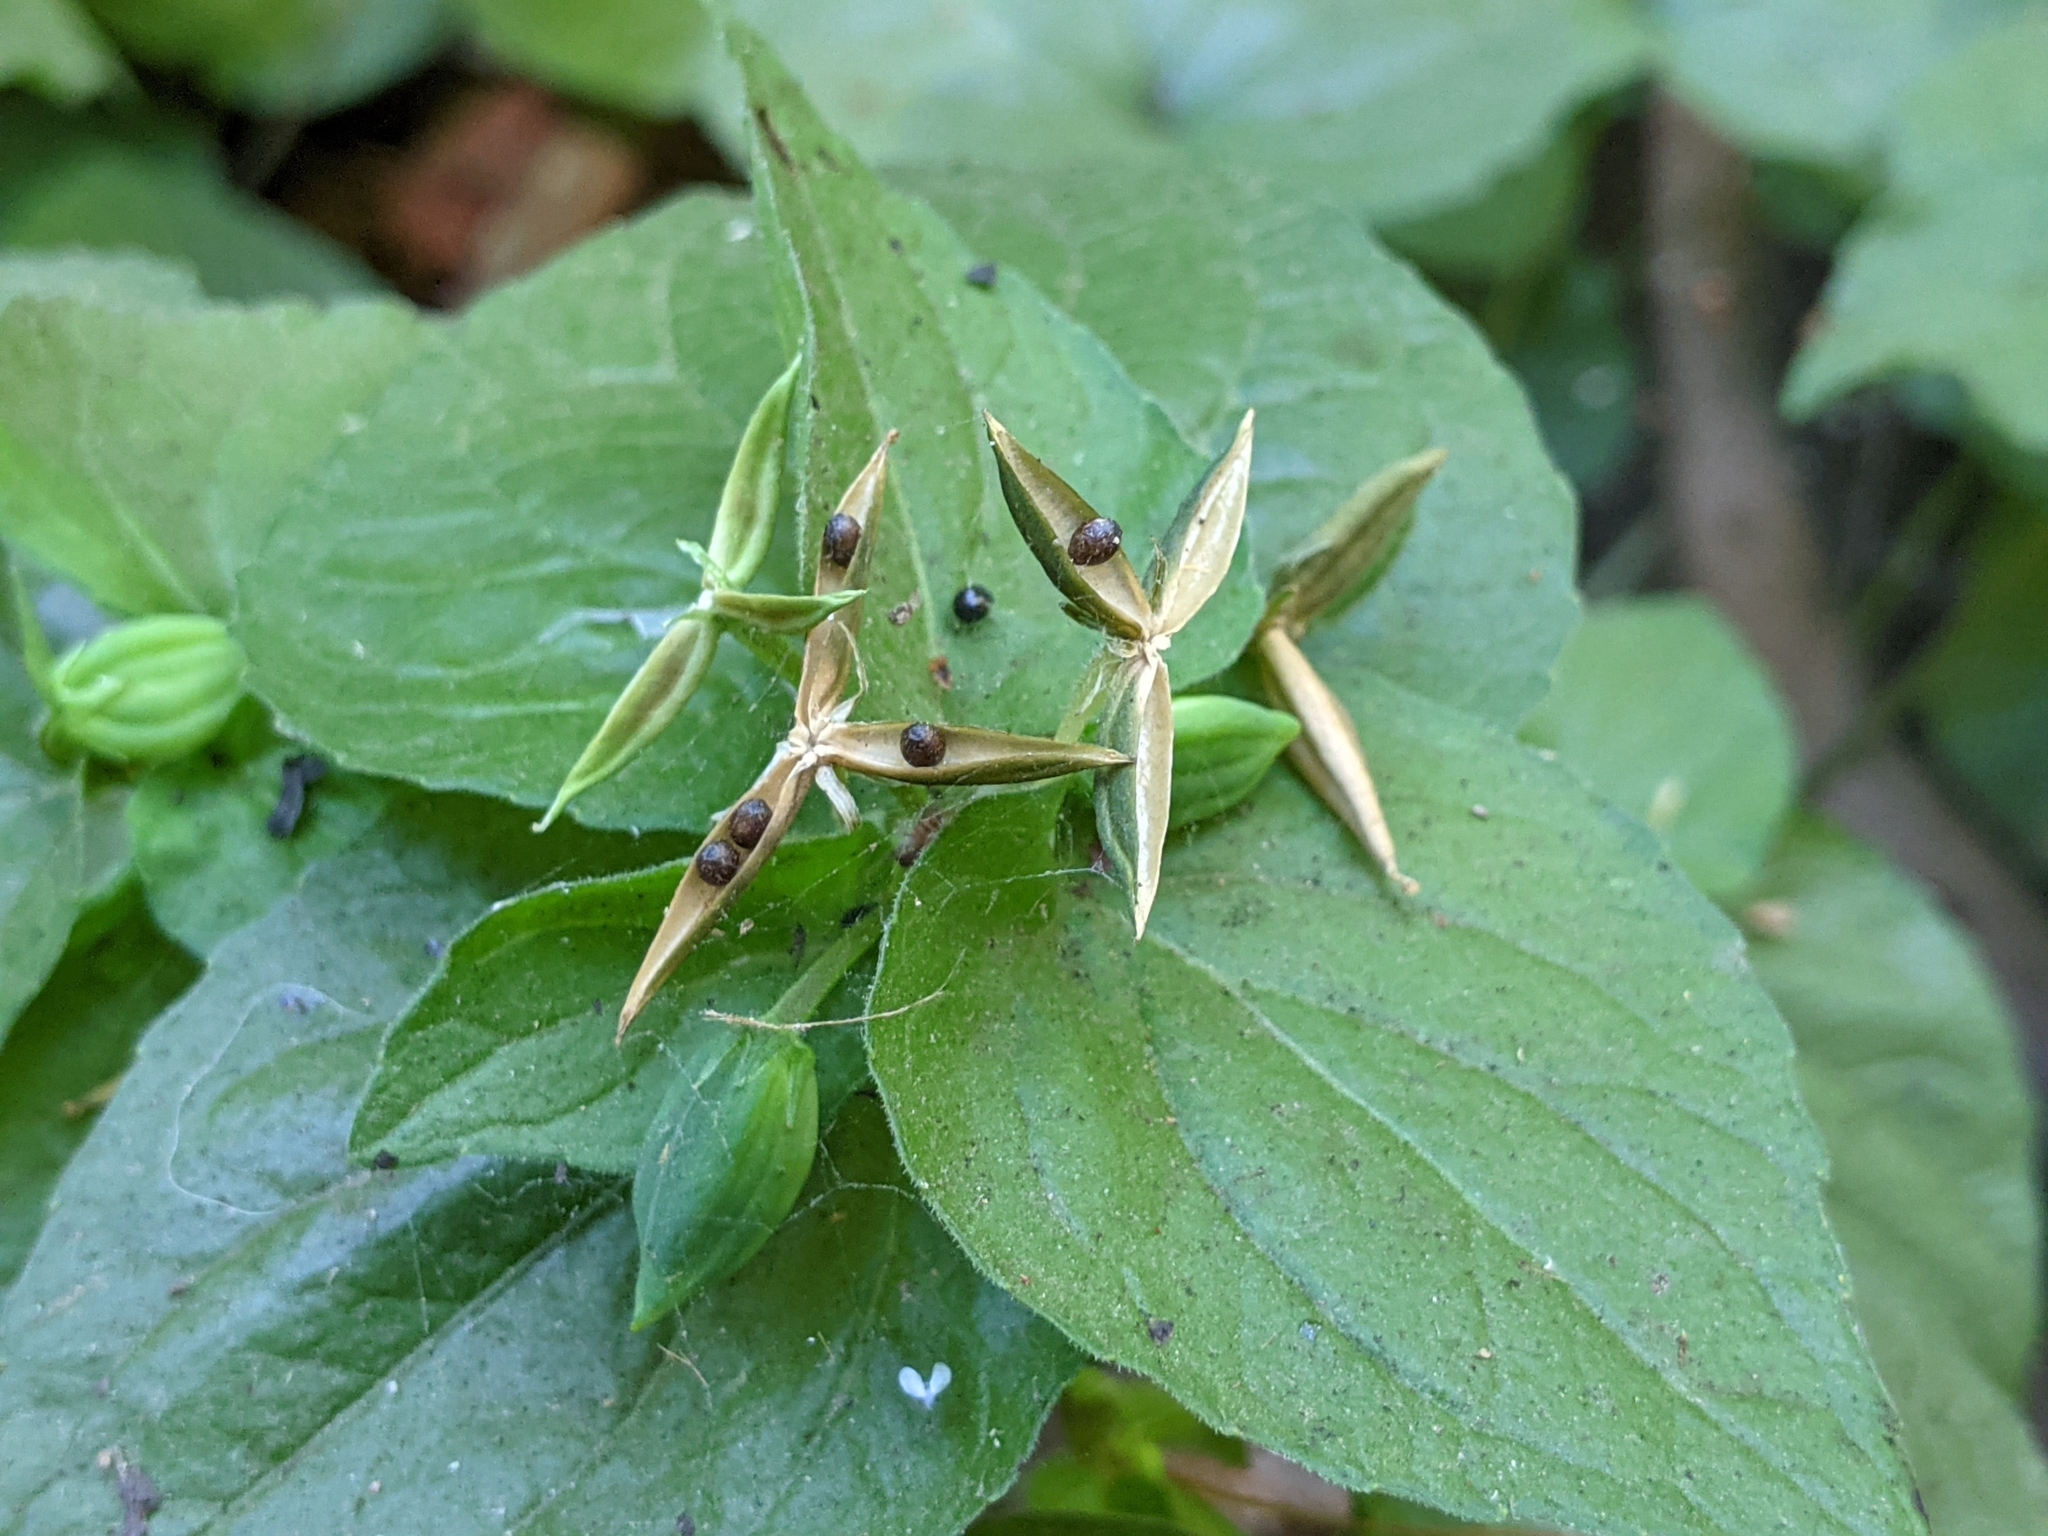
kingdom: Plantae
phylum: Tracheophyta
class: Magnoliopsida
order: Malpighiales
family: Violaceae
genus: Viola
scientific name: Viola glabella
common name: Stream violet
